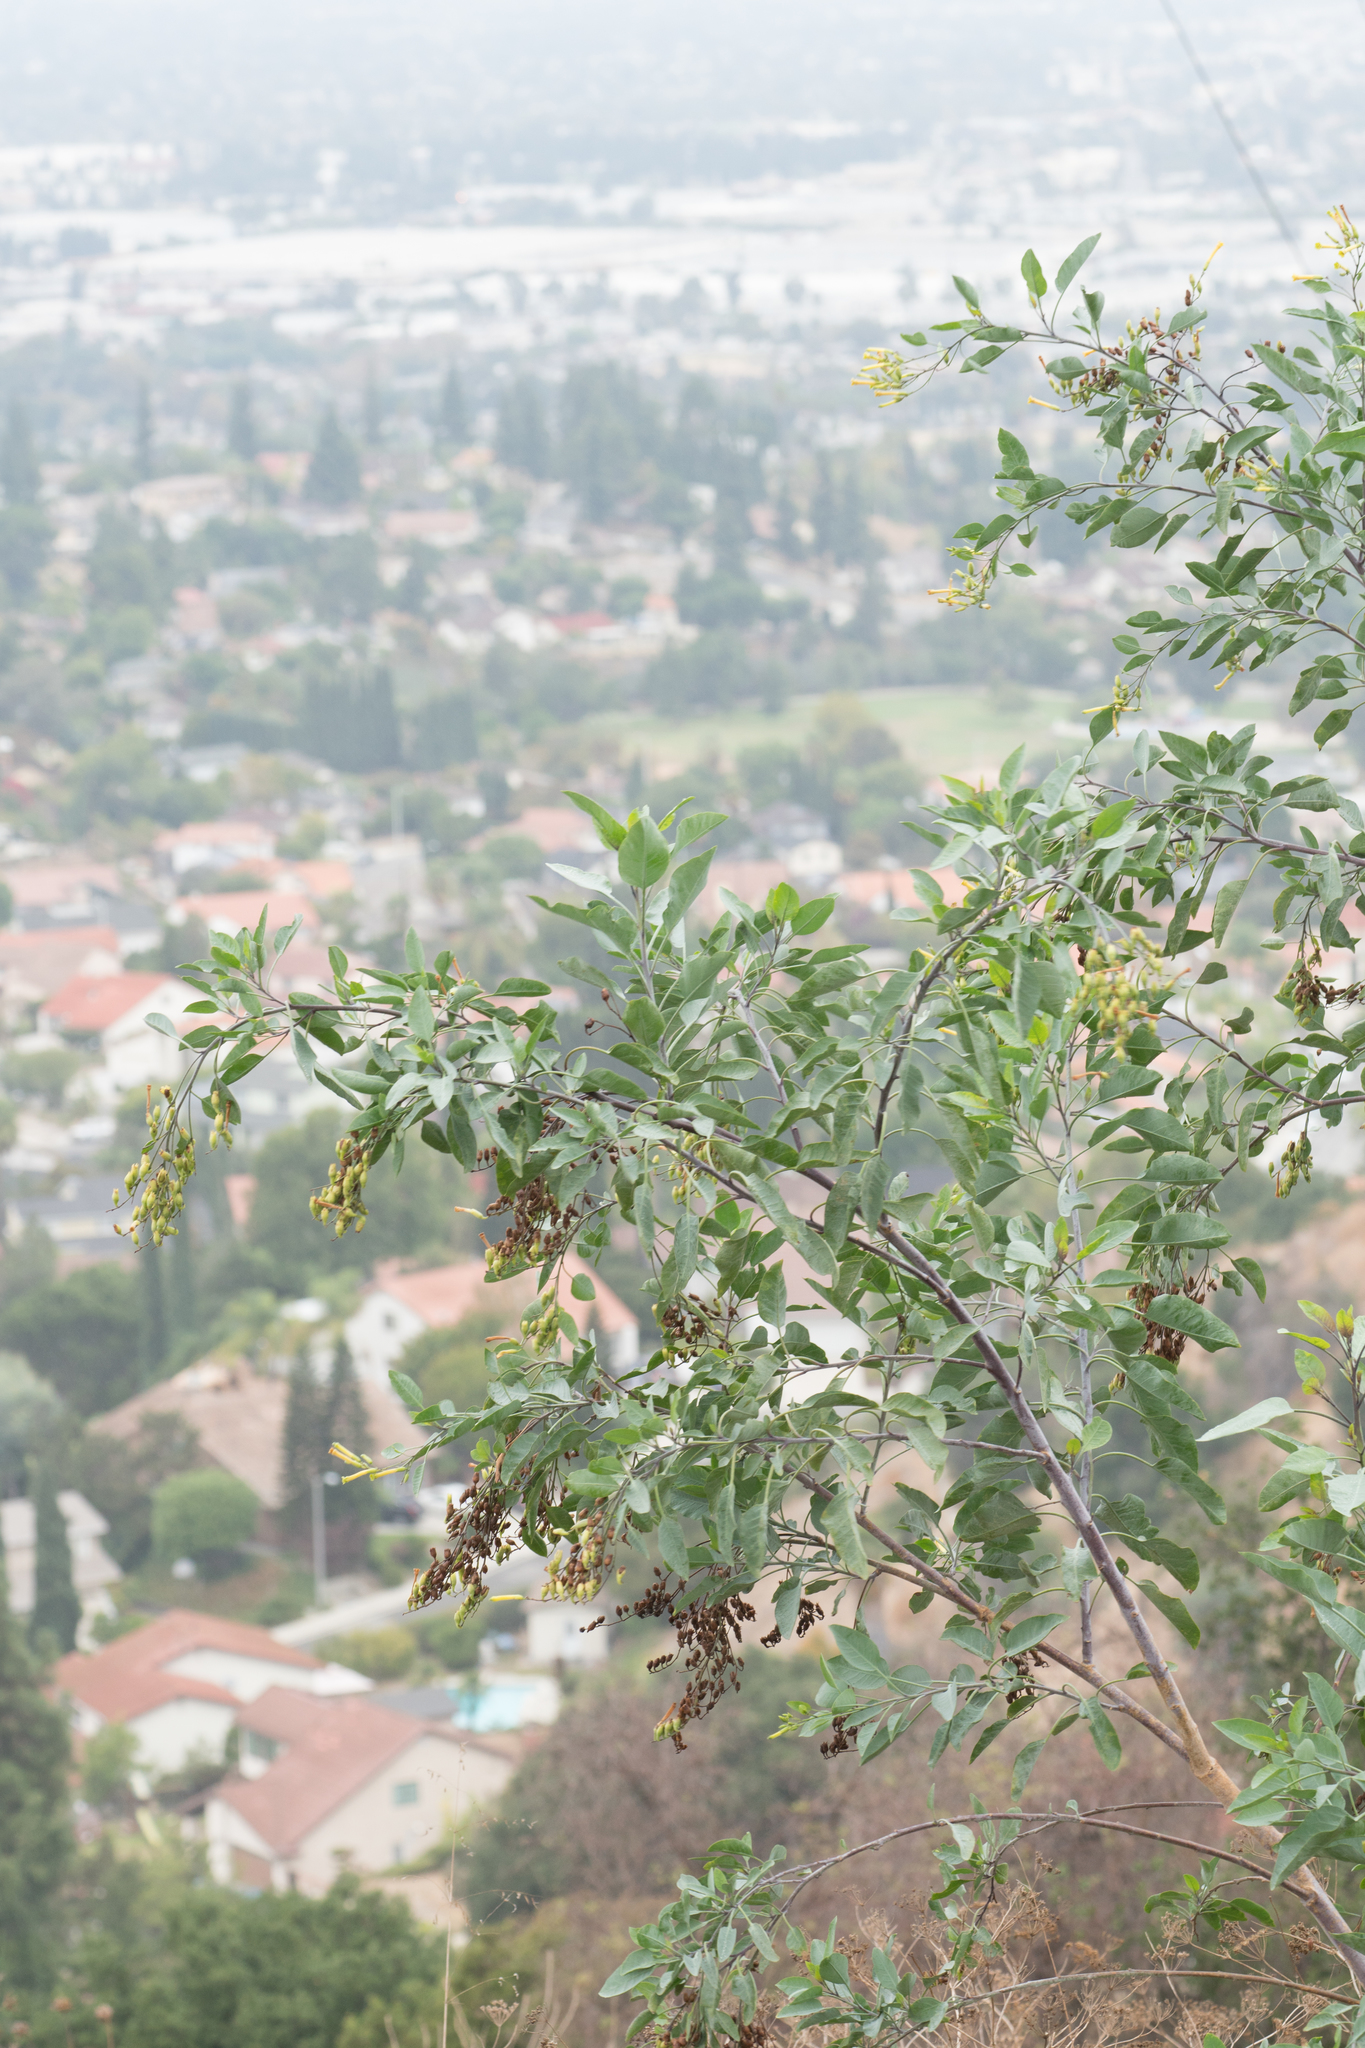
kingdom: Plantae
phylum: Tracheophyta
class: Magnoliopsida
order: Solanales
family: Solanaceae
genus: Nicotiana
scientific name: Nicotiana glauca
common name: Tree tobacco
